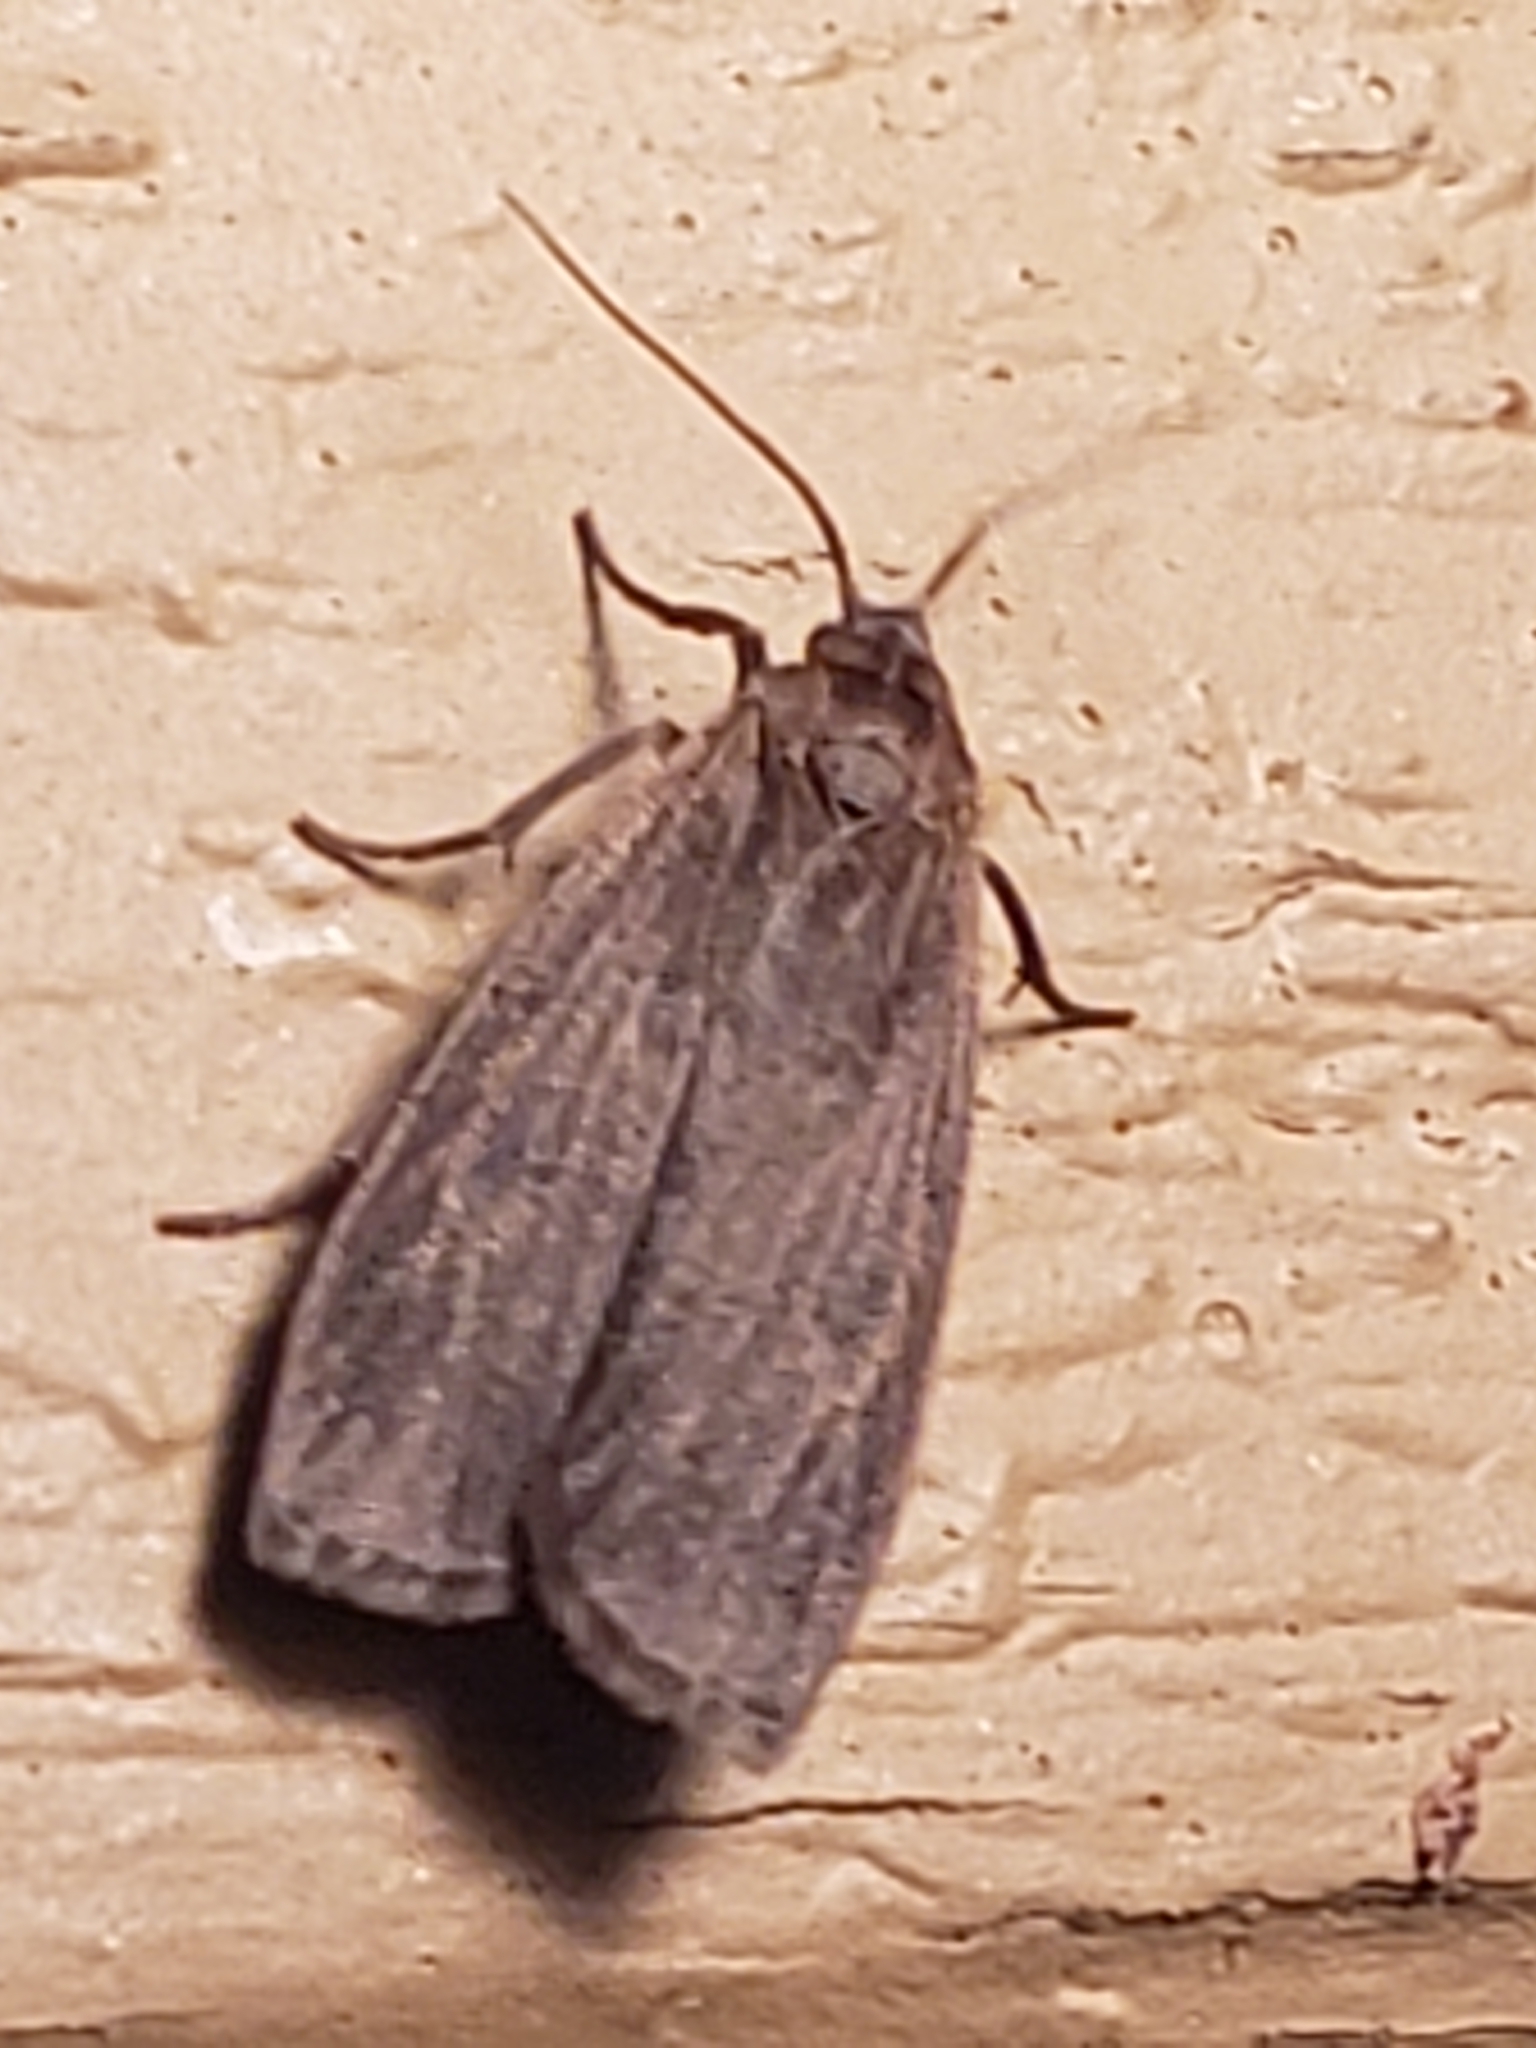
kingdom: Animalia
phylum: Arthropoda
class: Insecta
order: Lepidoptera
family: Erebidae
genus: Crambidia
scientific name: Crambidia uniformis
